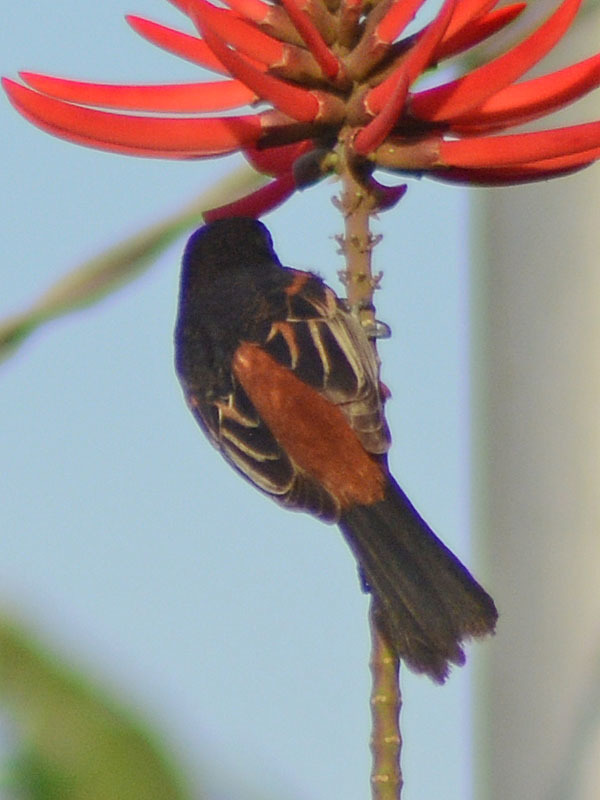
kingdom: Animalia
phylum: Chordata
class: Aves
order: Passeriformes
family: Icteridae
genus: Icterus
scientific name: Icterus spurius
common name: Orchard oriole
